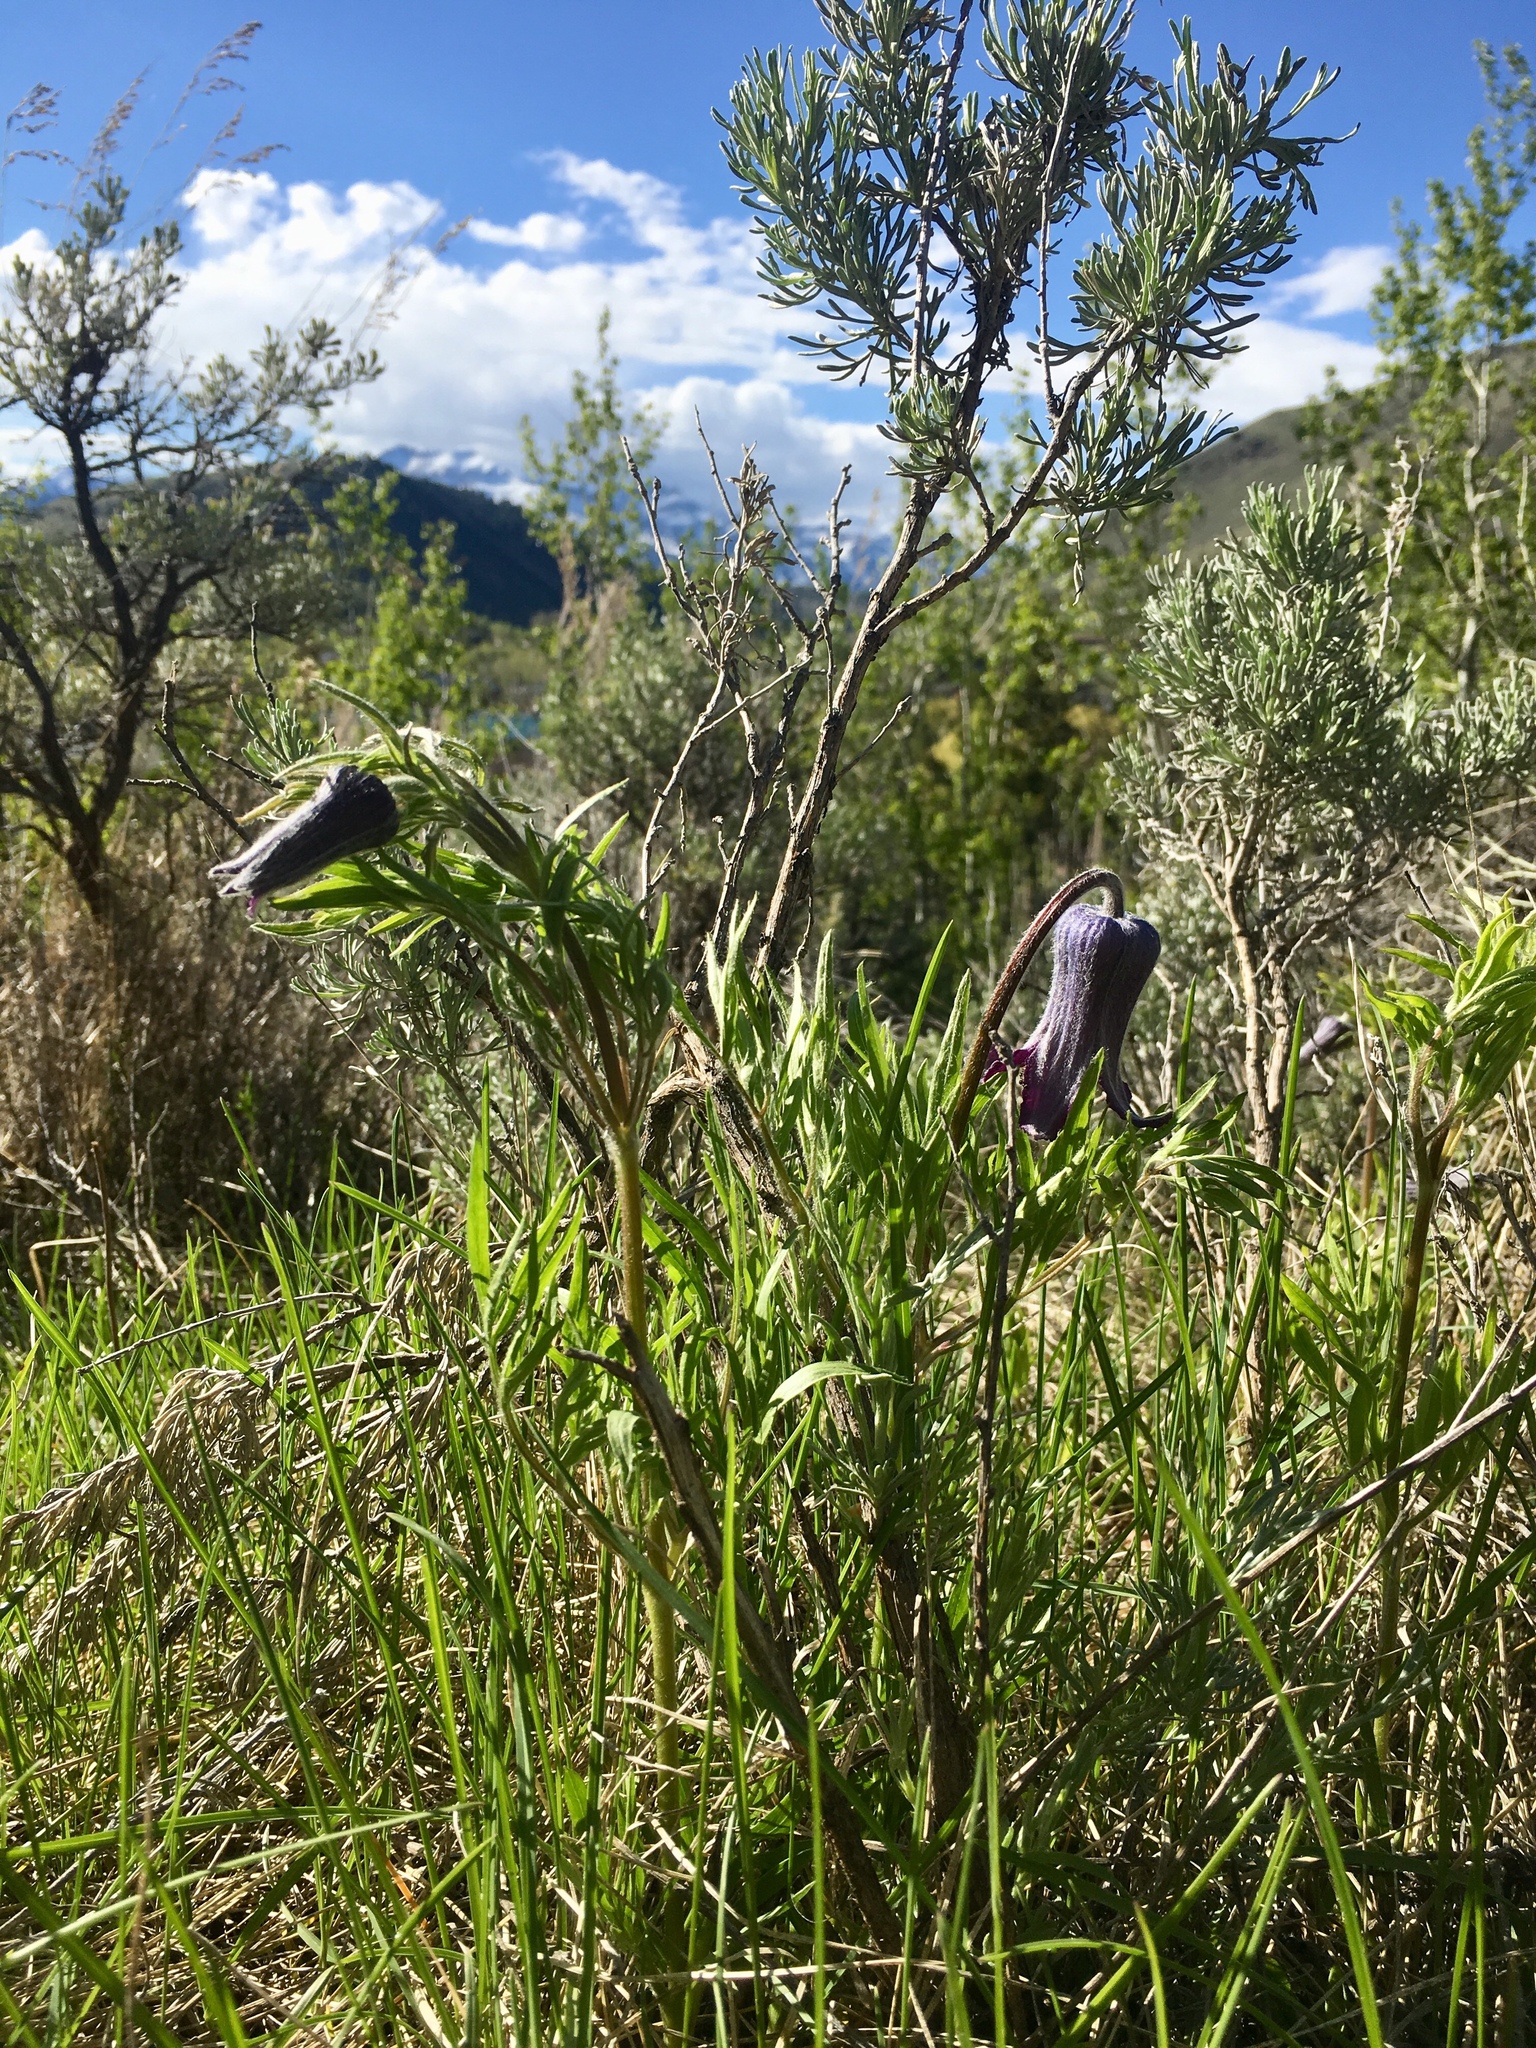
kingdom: Plantae
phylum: Tracheophyta
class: Magnoliopsida
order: Ranunculales
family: Ranunculaceae
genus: Clematis
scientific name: Clematis hirsutissima
